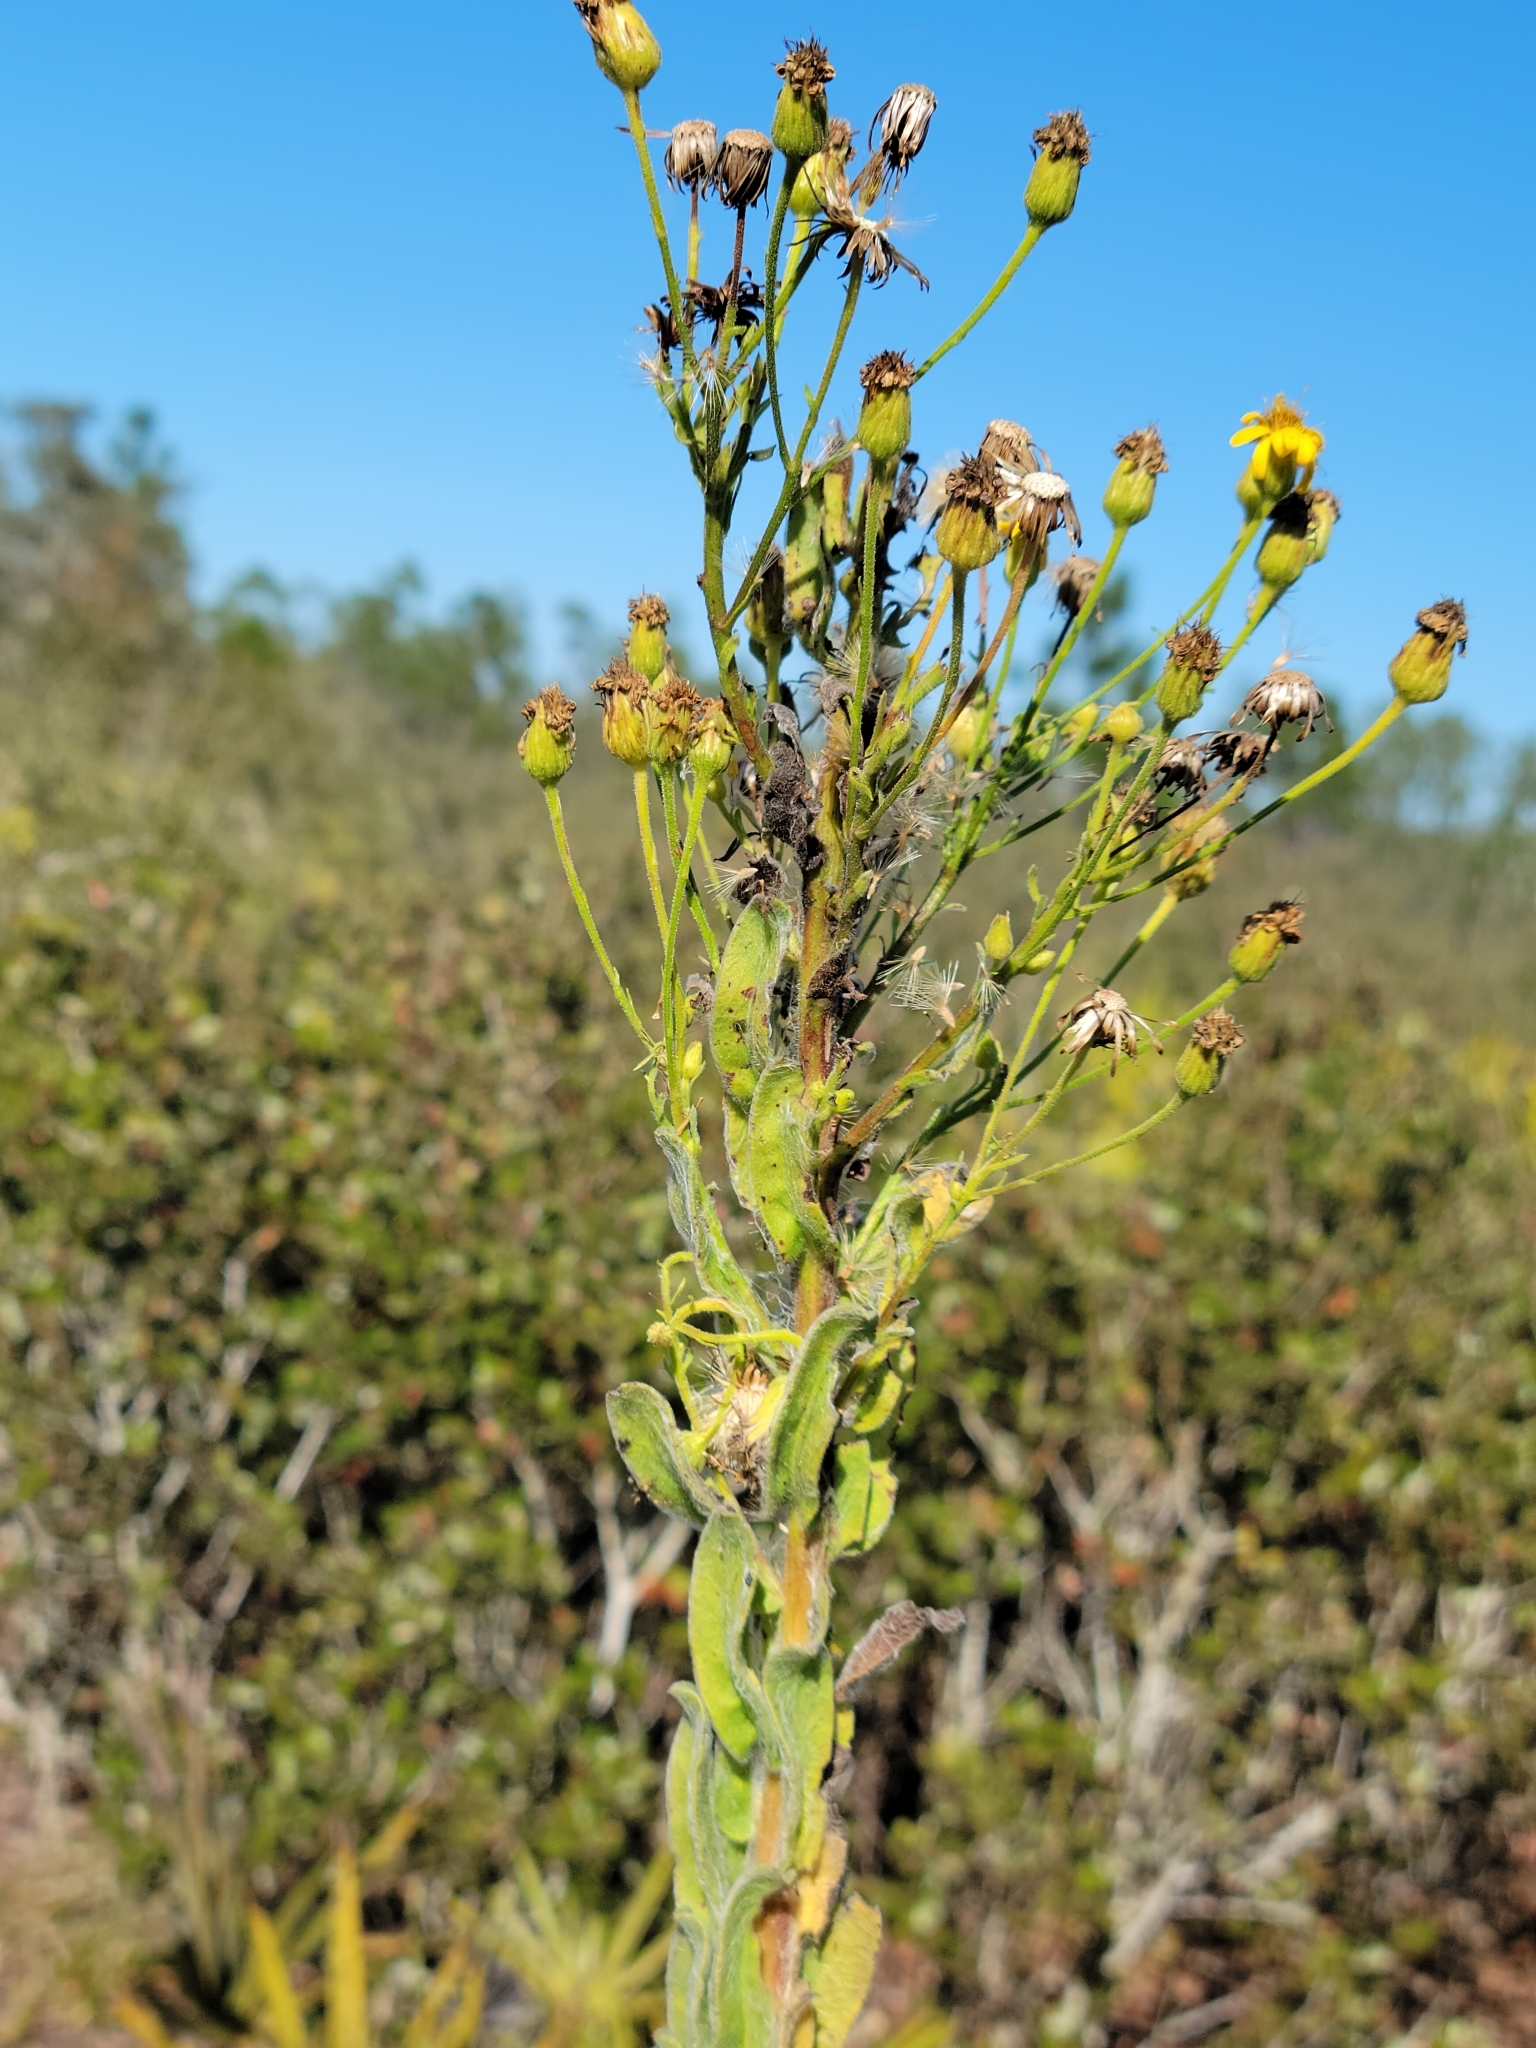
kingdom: Plantae
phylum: Tracheophyta
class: Magnoliopsida
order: Asterales
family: Asteraceae
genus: Chrysopsis
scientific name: Chrysopsis floridana
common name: Florida golden-aster
